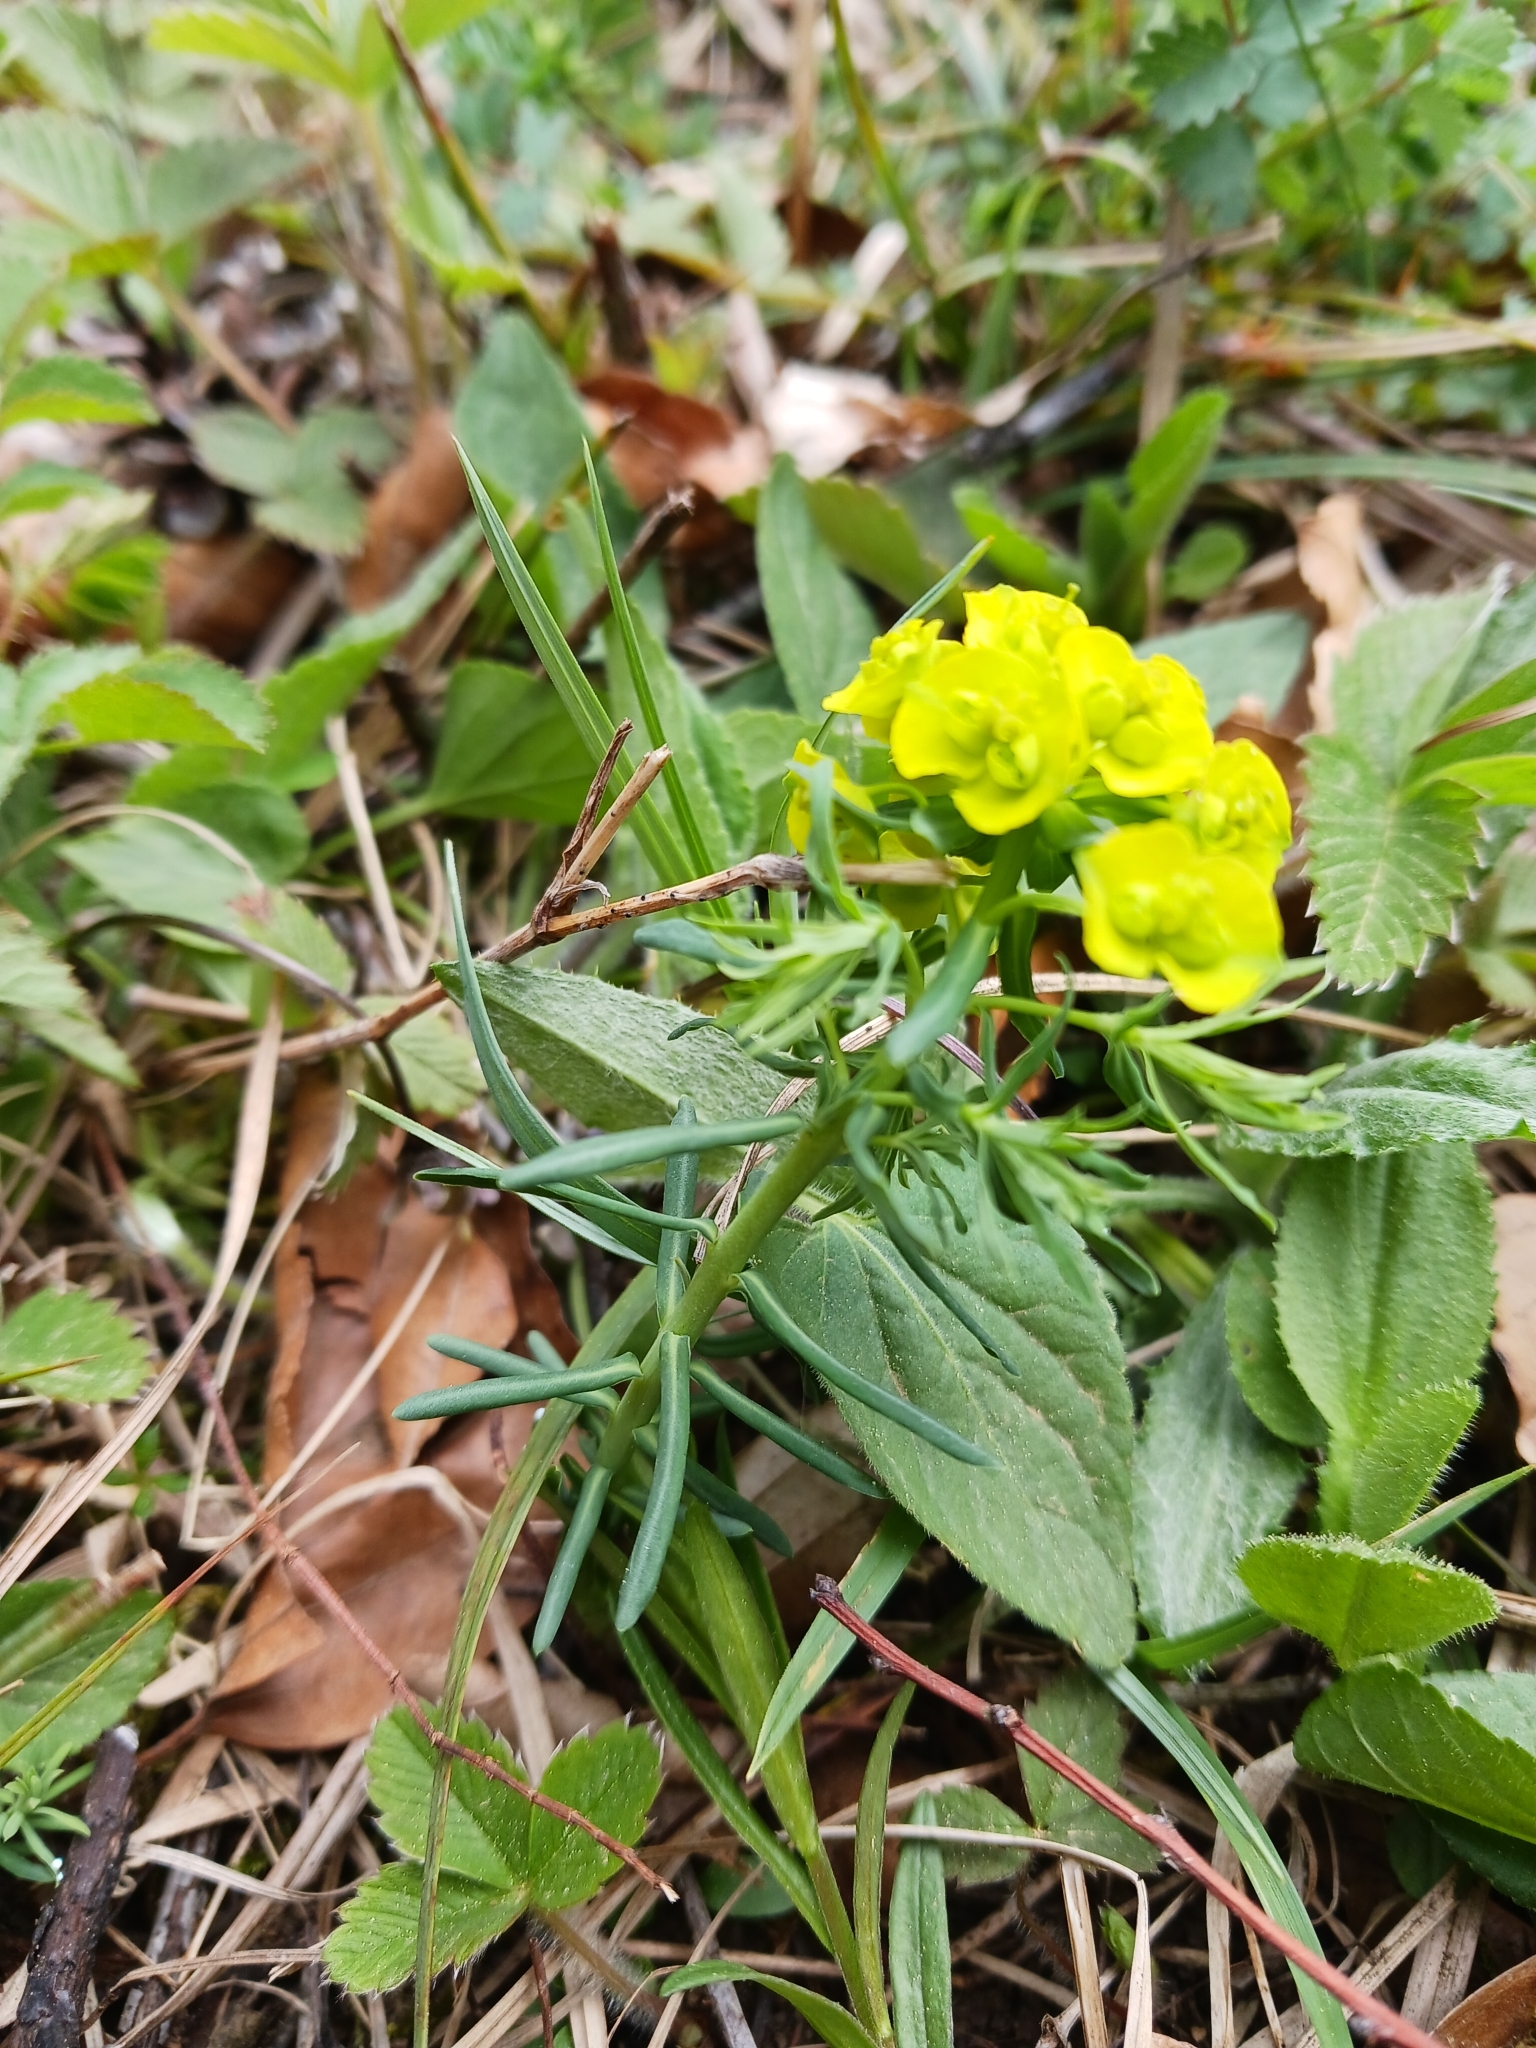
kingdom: Plantae
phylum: Tracheophyta
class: Magnoliopsida
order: Malpighiales
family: Euphorbiaceae
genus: Euphorbia
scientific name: Euphorbia cyparissias
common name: Cypress spurge
